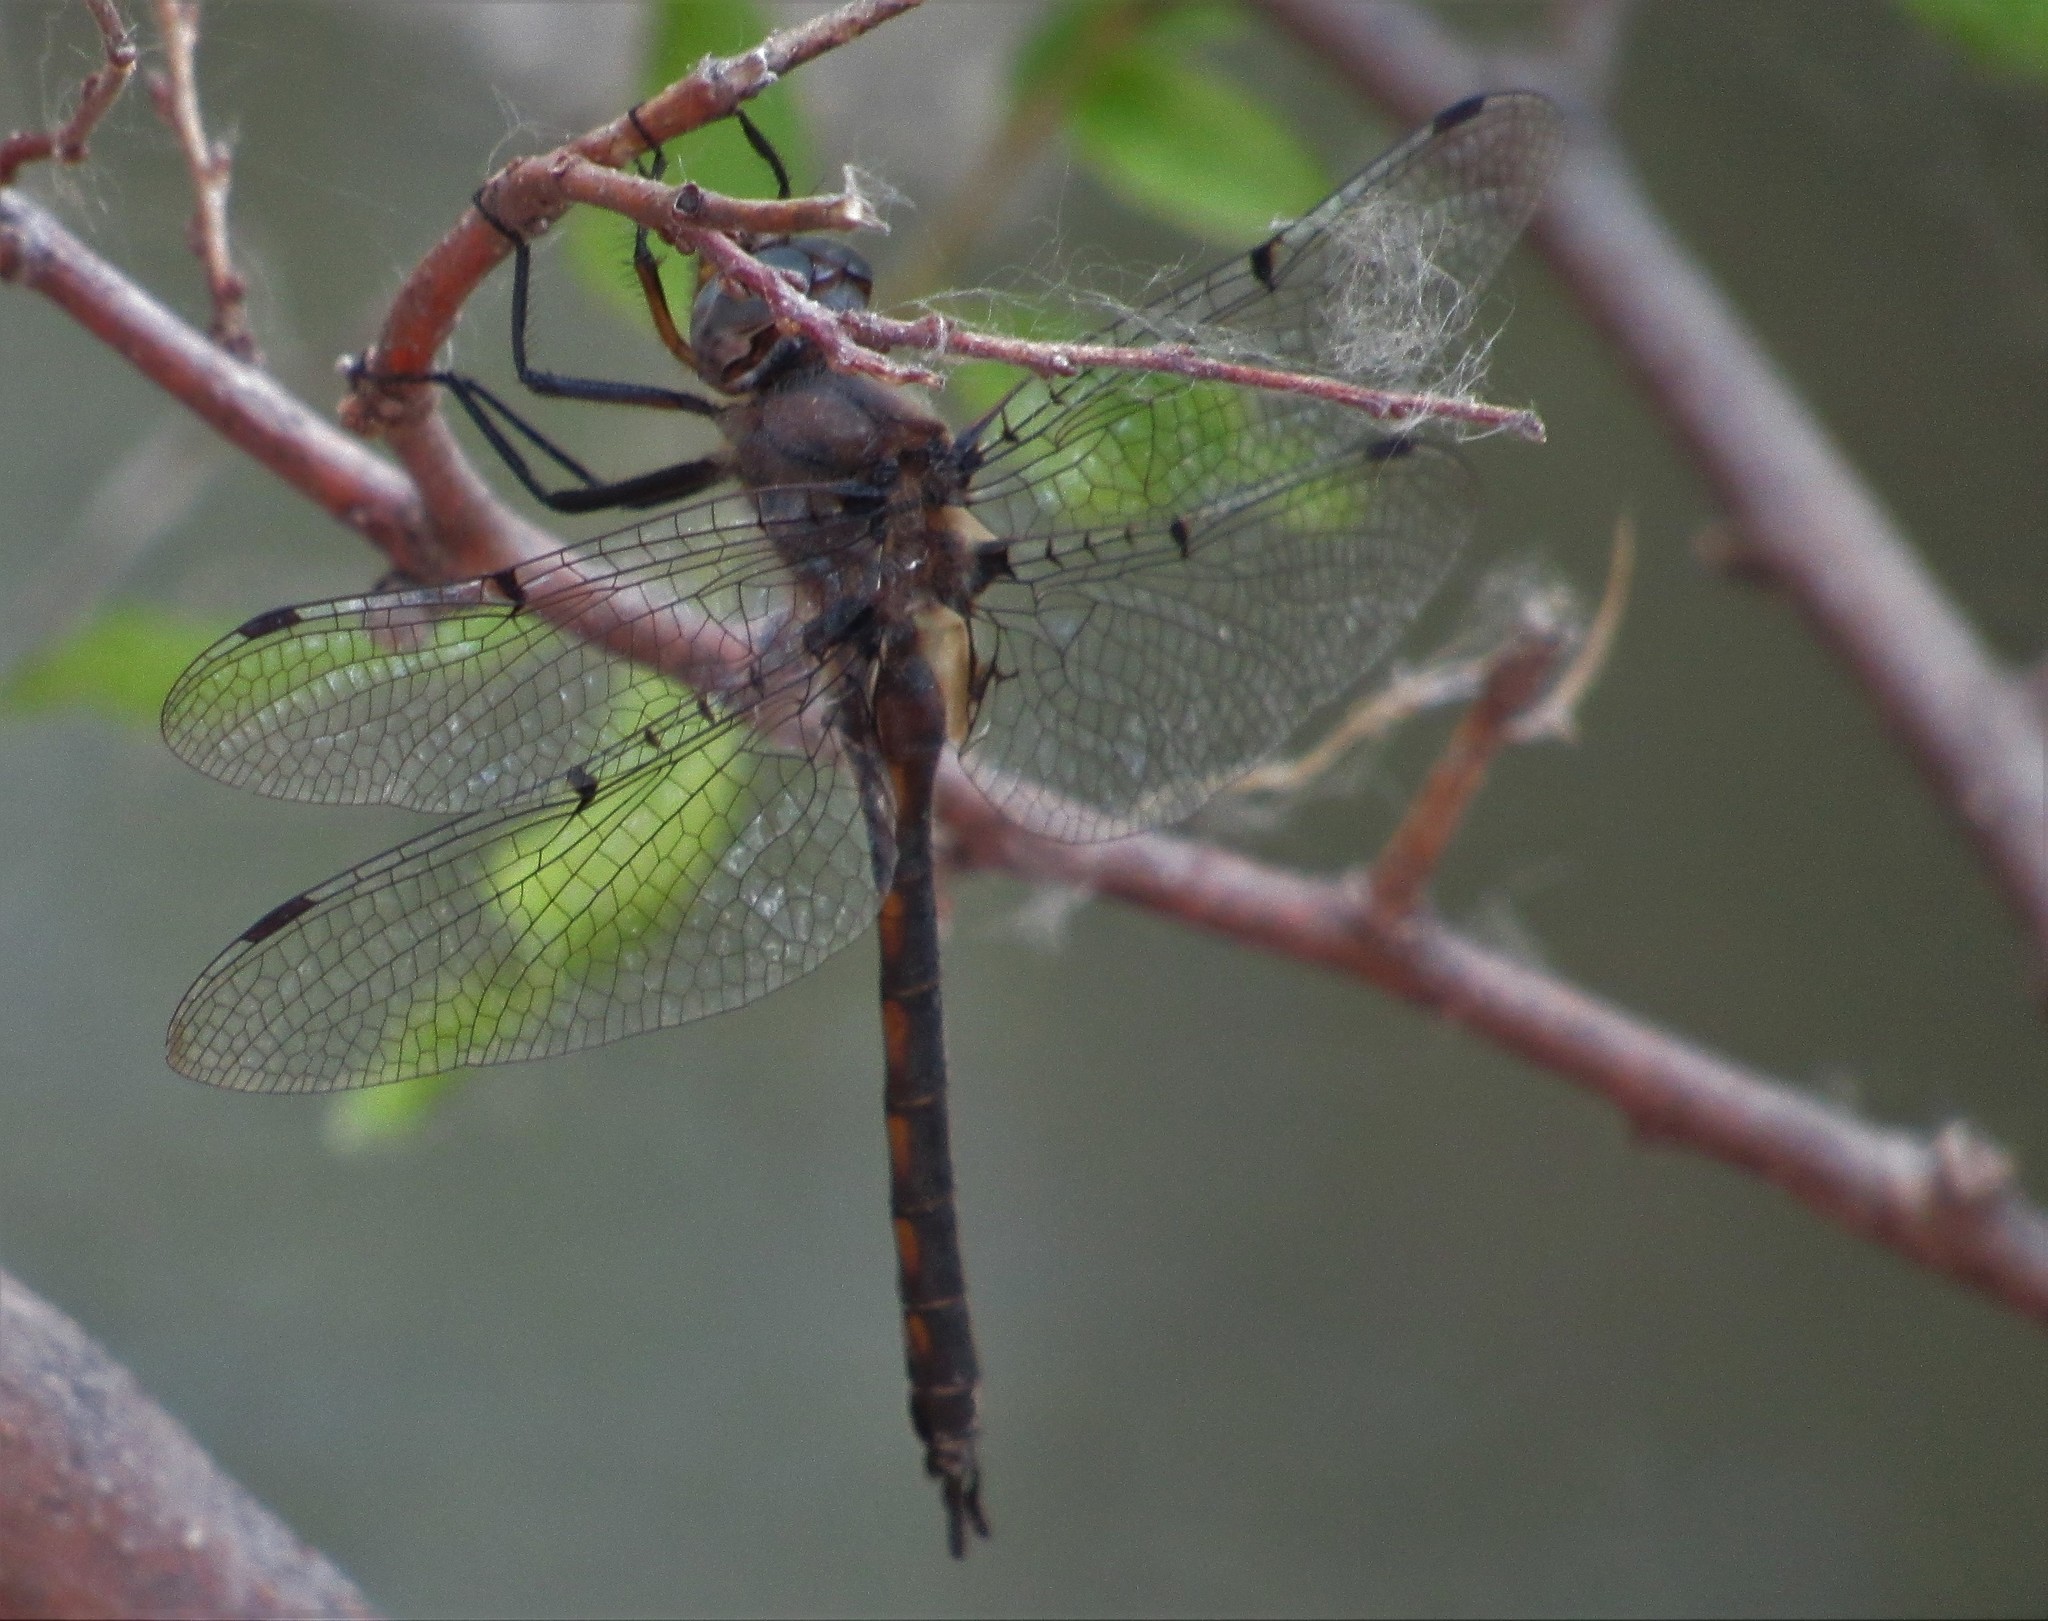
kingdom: Animalia
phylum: Arthropoda
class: Insecta
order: Odonata
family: Corduliidae
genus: Epitheca
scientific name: Epitheca petechialis
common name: Dot-winged baskettail
